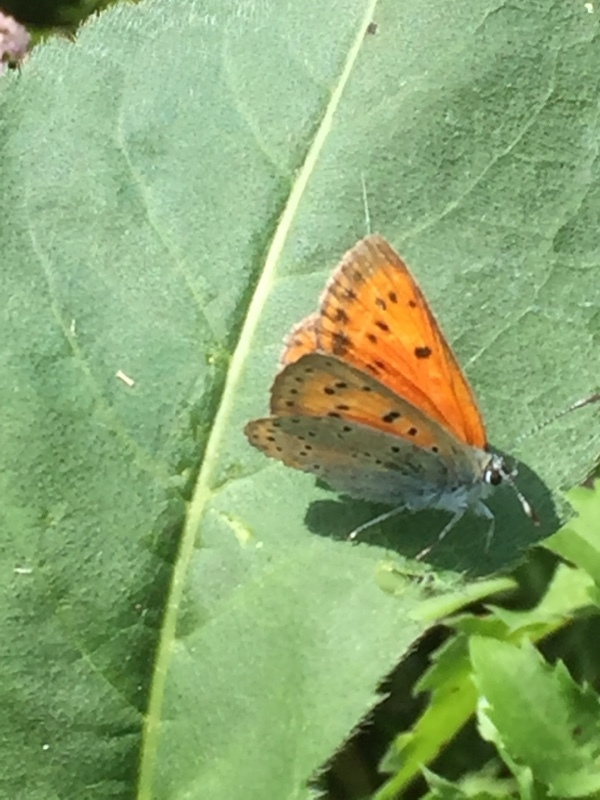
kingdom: Animalia
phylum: Arthropoda
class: Insecta
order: Lepidoptera
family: Lycaenidae
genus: Lycaena
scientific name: Lycaena dispar
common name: Large copper
